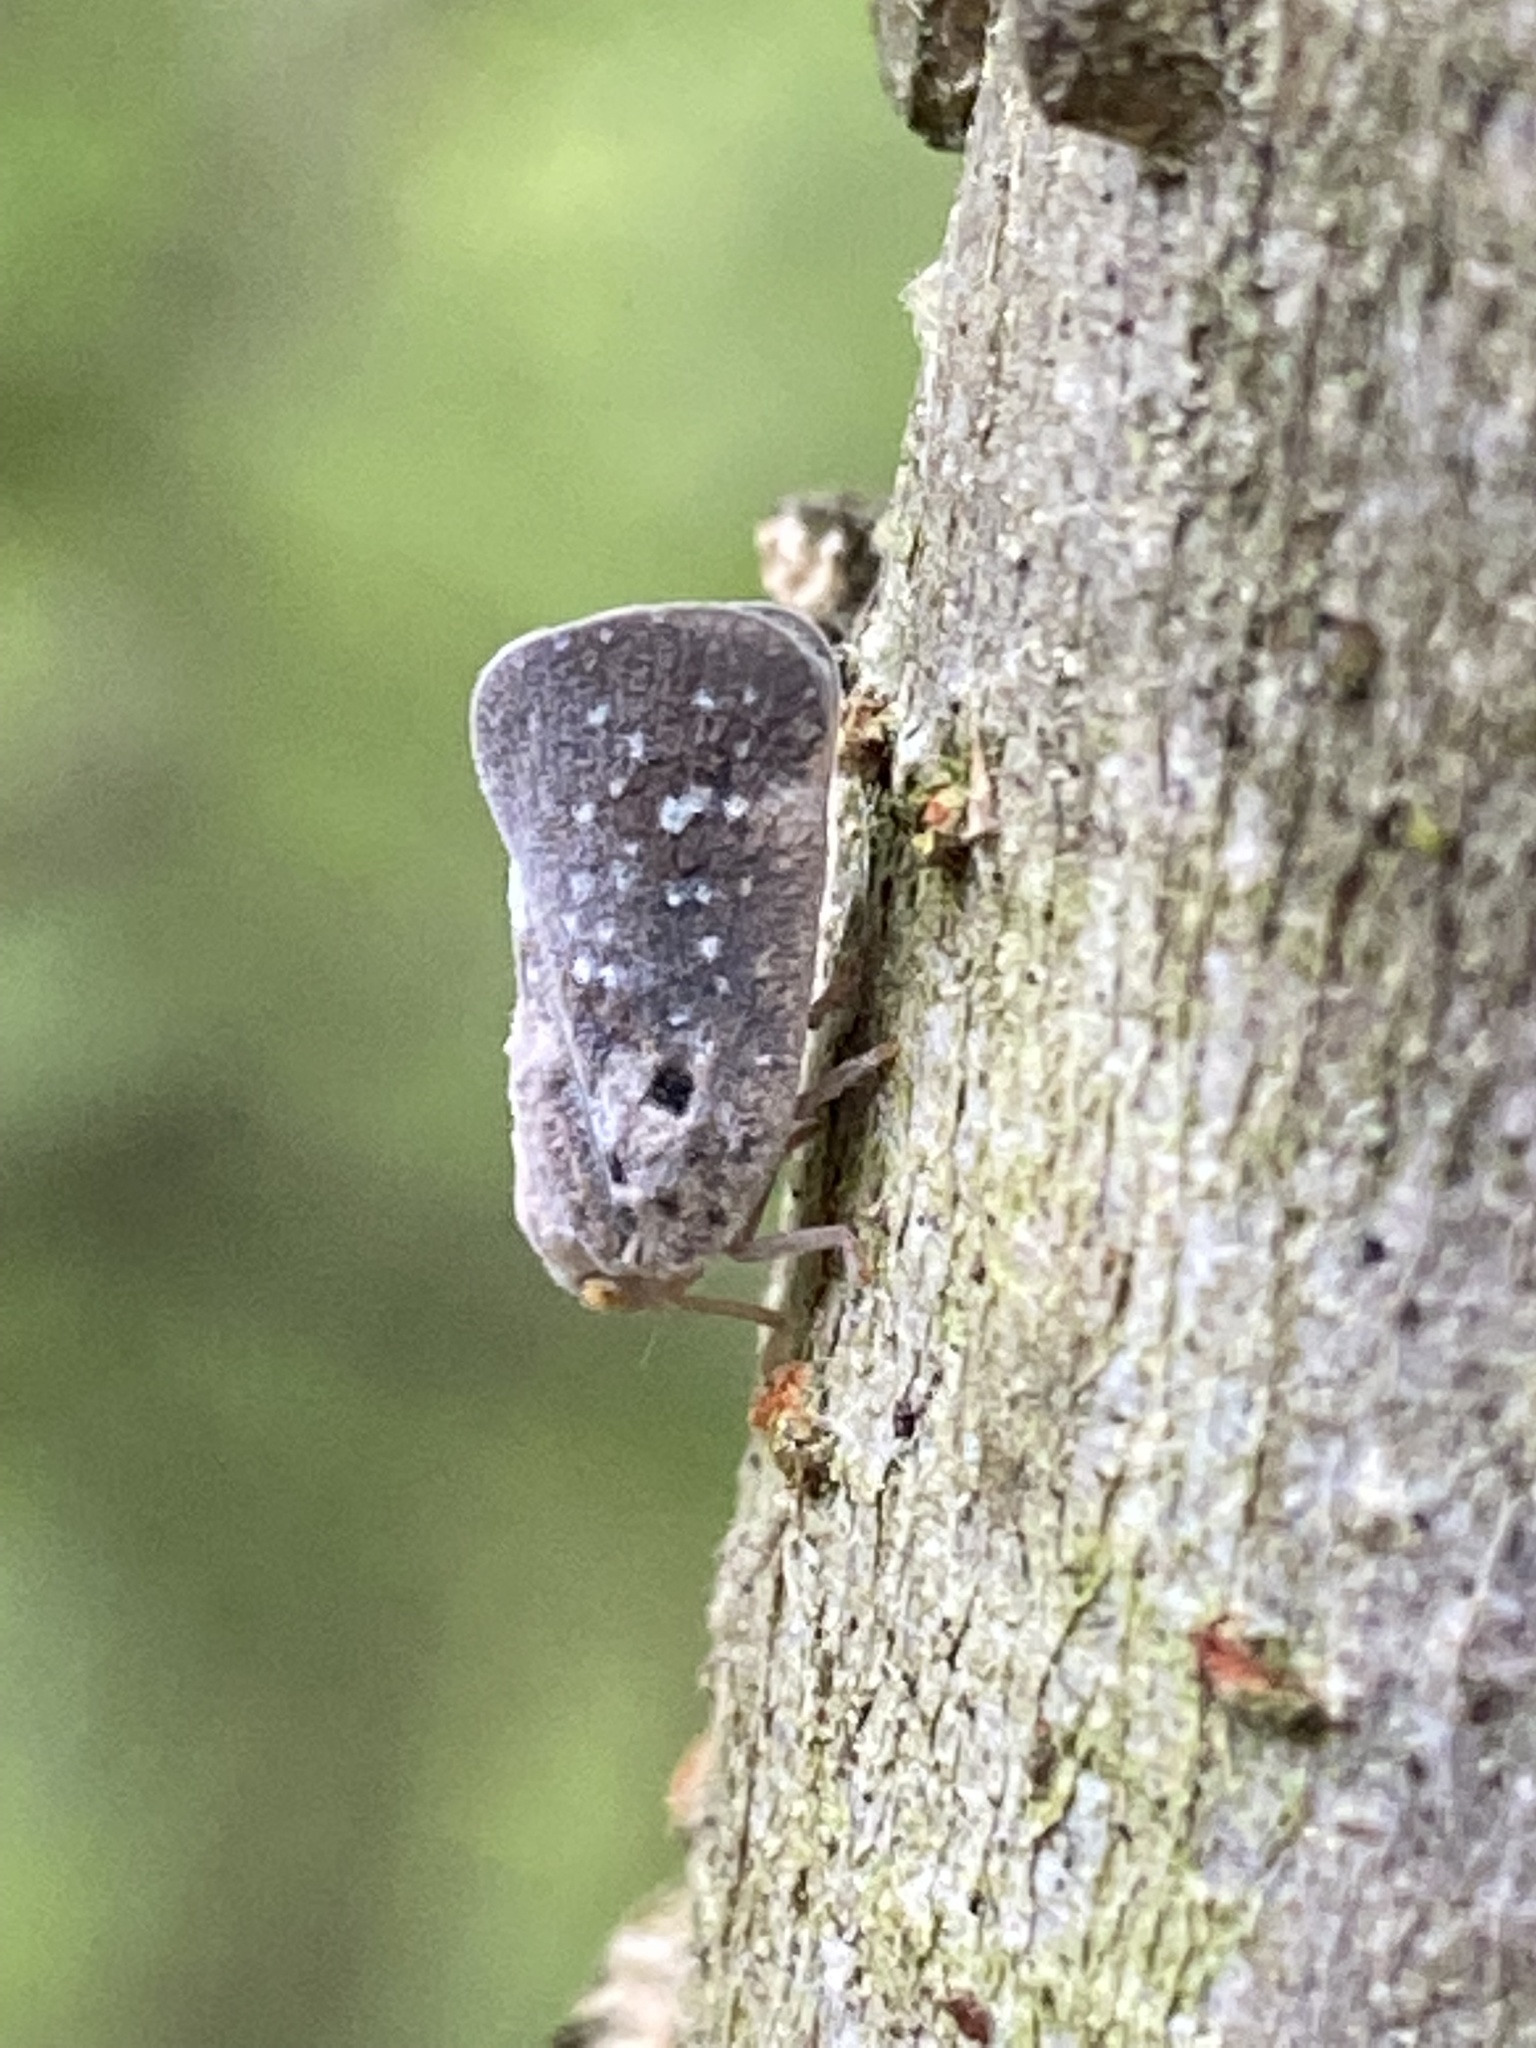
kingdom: Animalia
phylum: Arthropoda
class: Insecta
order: Hemiptera
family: Flatidae
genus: Metcalfa
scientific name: Metcalfa pruinosa
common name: Citrus flatid planthopper
